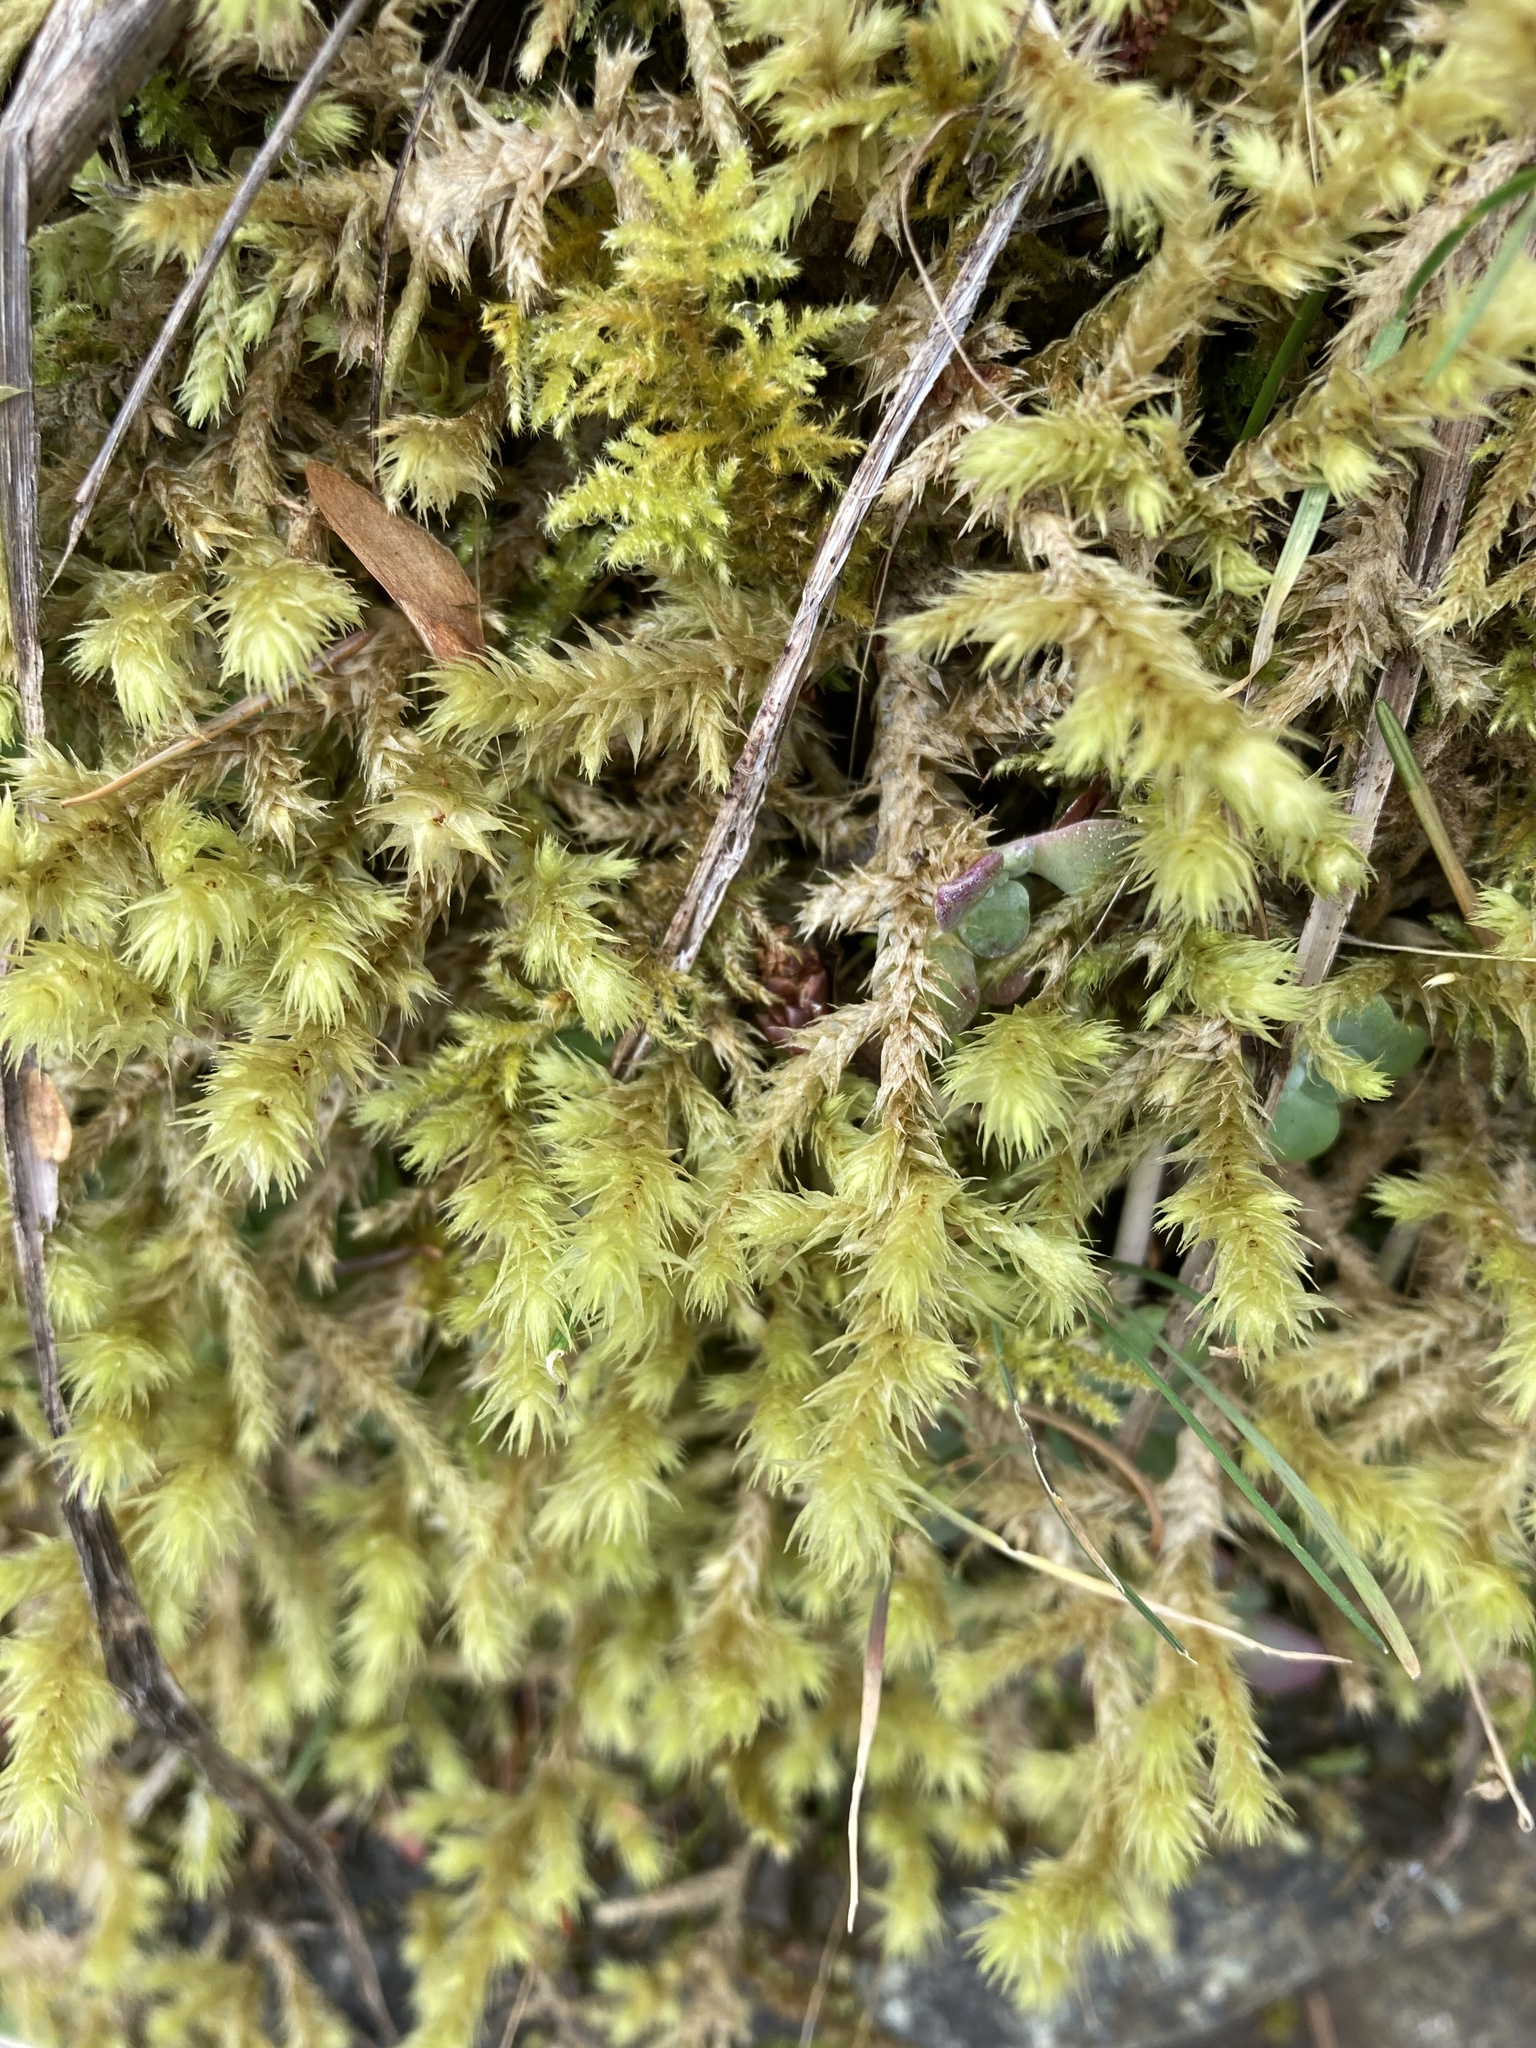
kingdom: Plantae
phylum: Bryophyta
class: Bryopsida
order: Hypnales
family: Hylocomiaceae
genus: Hylocomiadelphus
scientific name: Hylocomiadelphus triquetrus
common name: Rough goose neck moss
